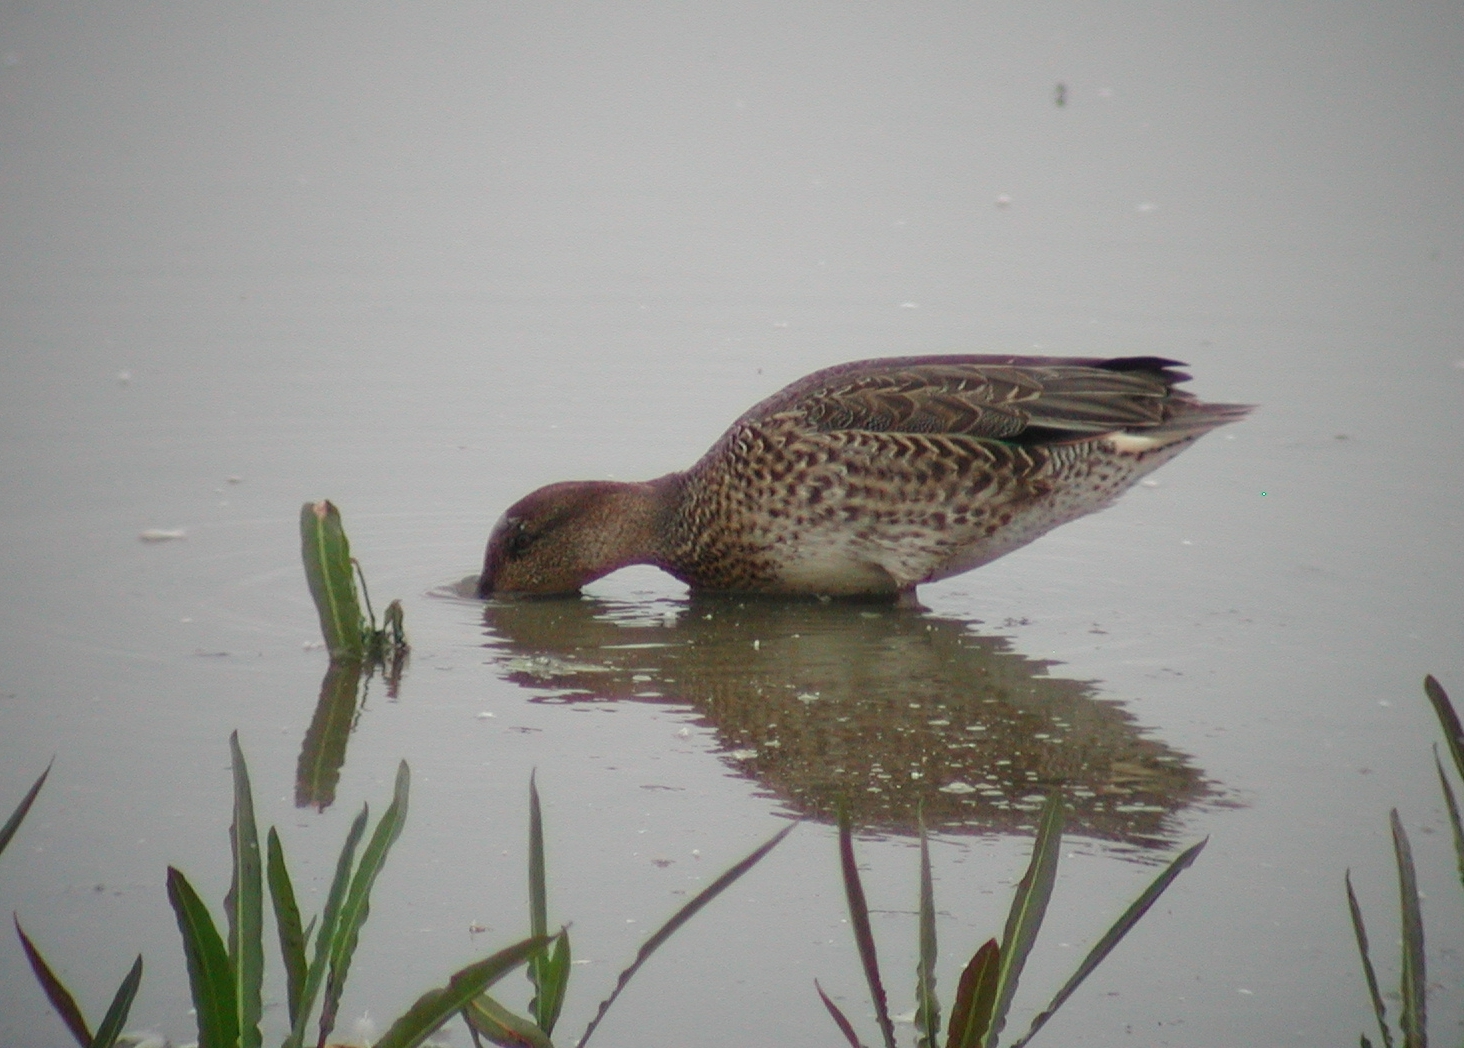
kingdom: Animalia
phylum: Chordata
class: Aves
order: Anseriformes
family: Anatidae
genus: Anas
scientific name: Anas crecca
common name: Eurasian teal
